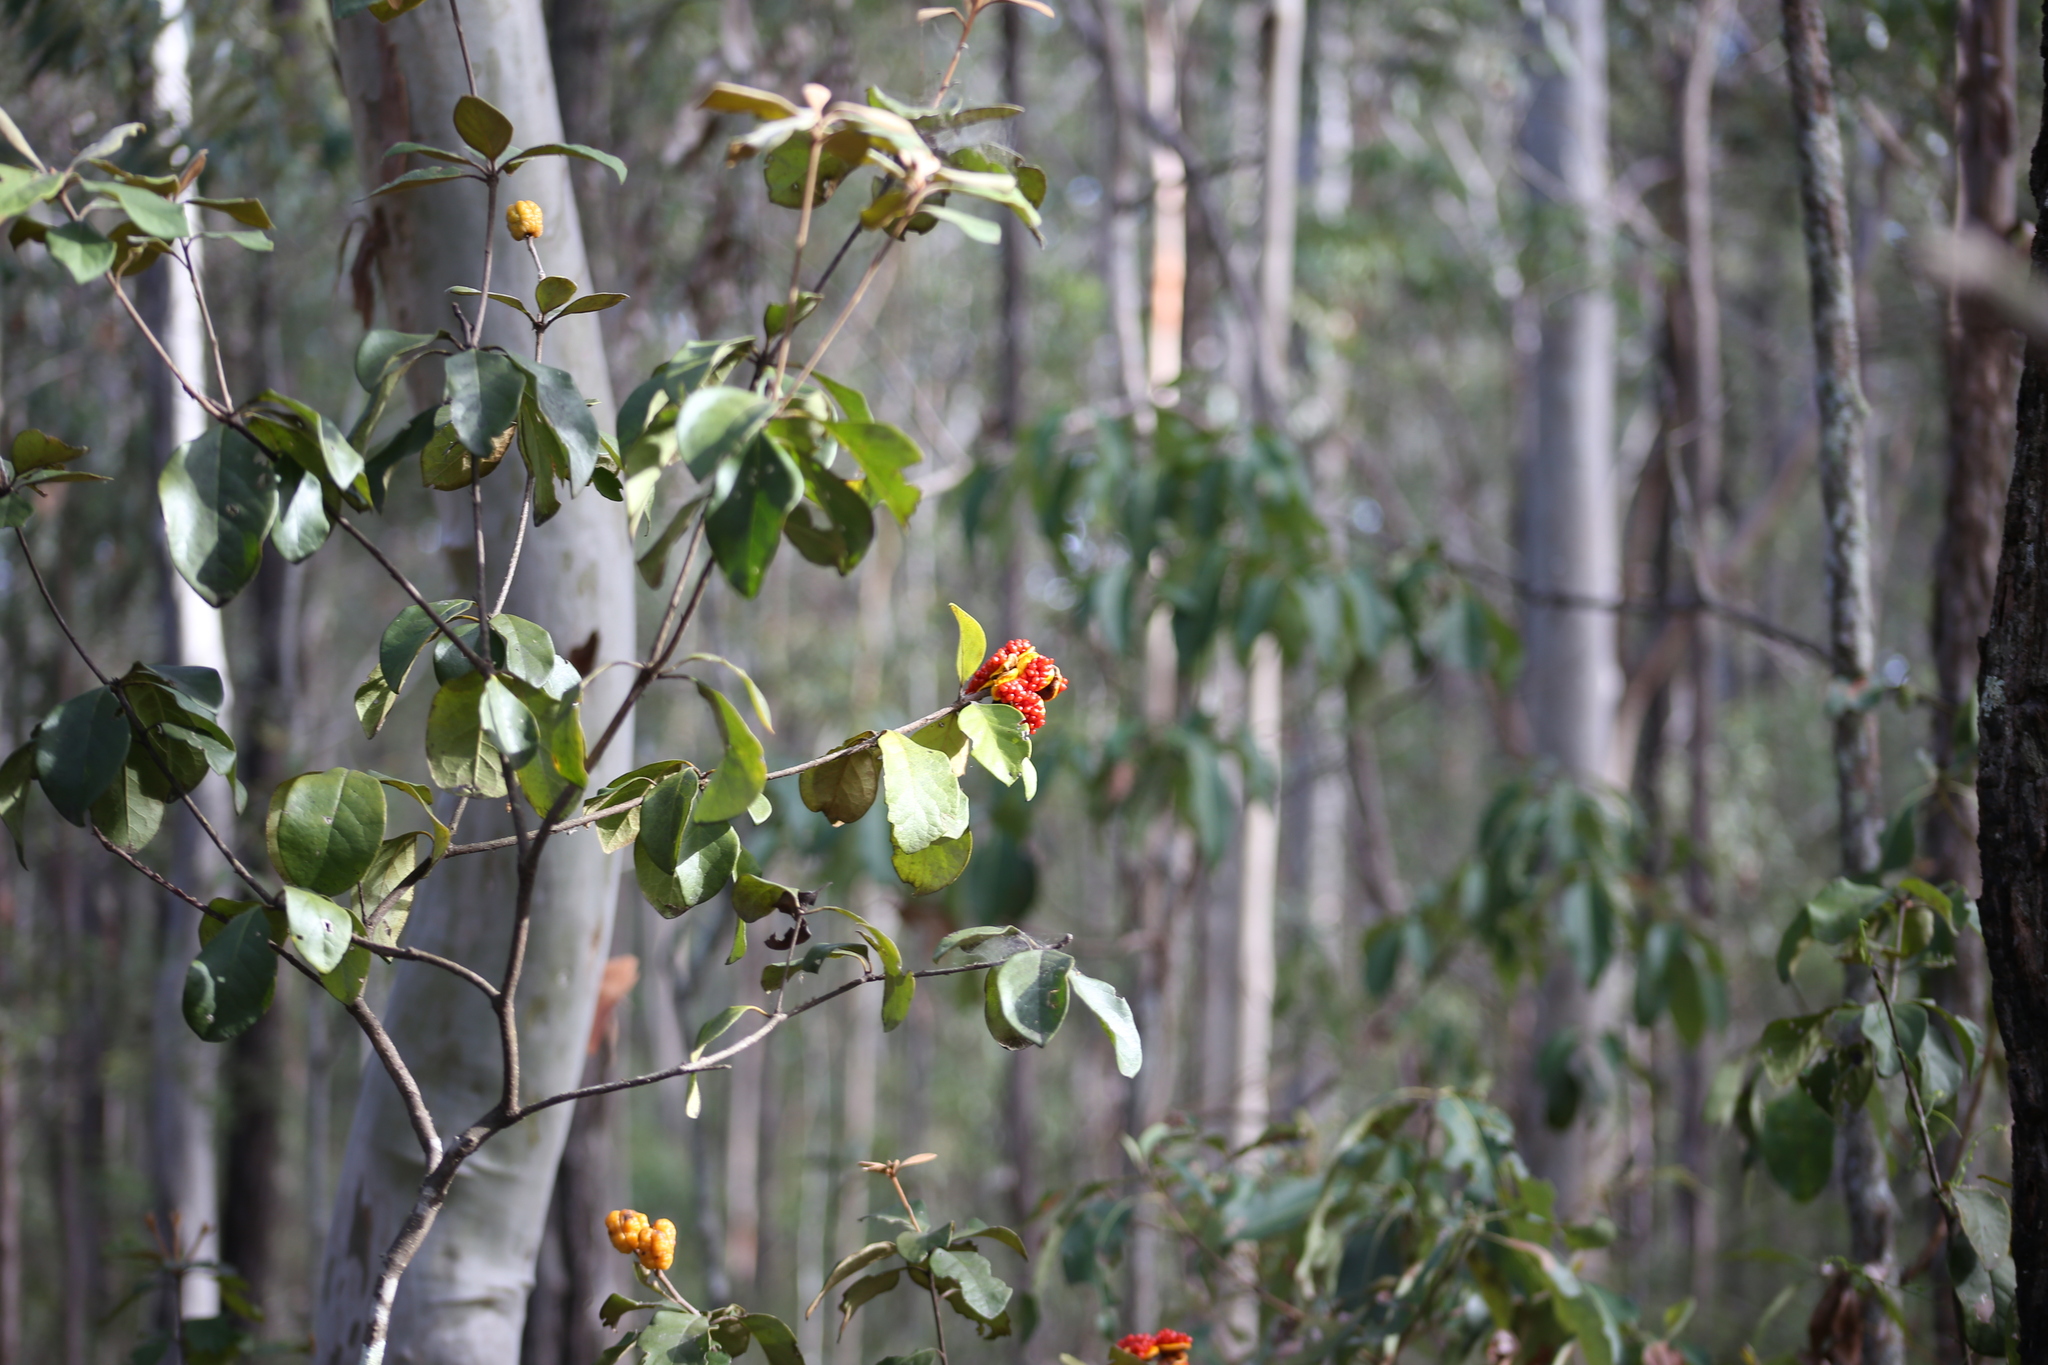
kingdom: Plantae
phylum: Tracheophyta
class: Magnoliopsida
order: Apiales
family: Pittosporaceae
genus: Pittosporum
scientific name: Pittosporum revolutum
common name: Brisbane-laurel
